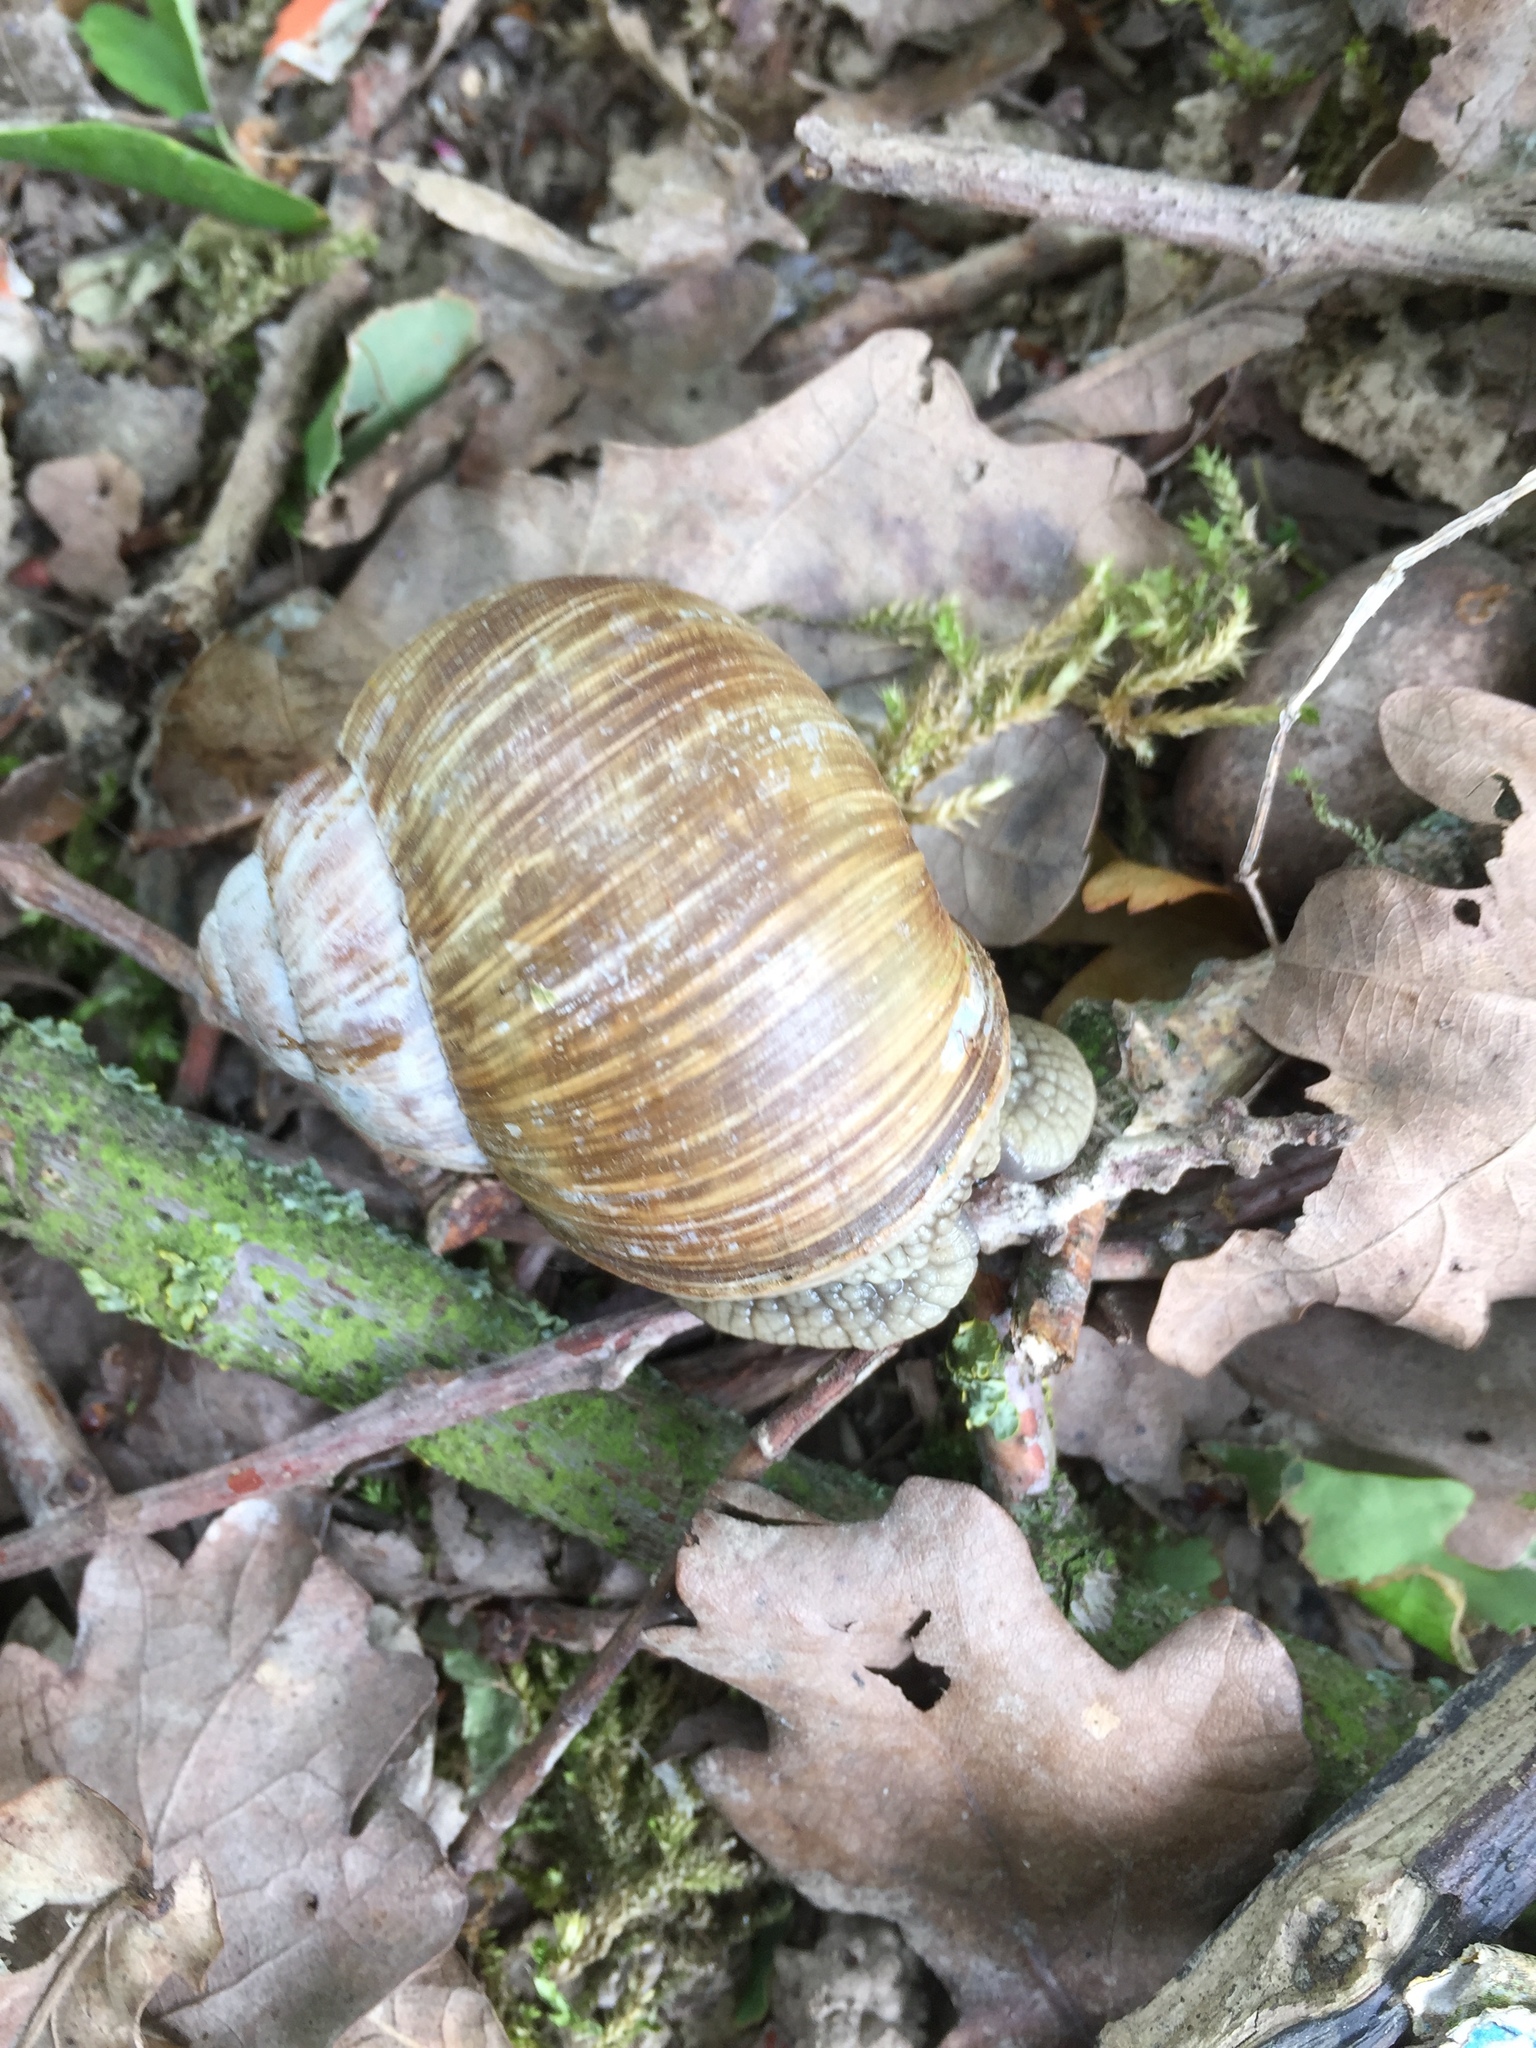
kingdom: Animalia
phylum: Mollusca
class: Gastropoda
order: Stylommatophora
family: Helicidae
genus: Helix
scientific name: Helix pomatia
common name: Roman snail
